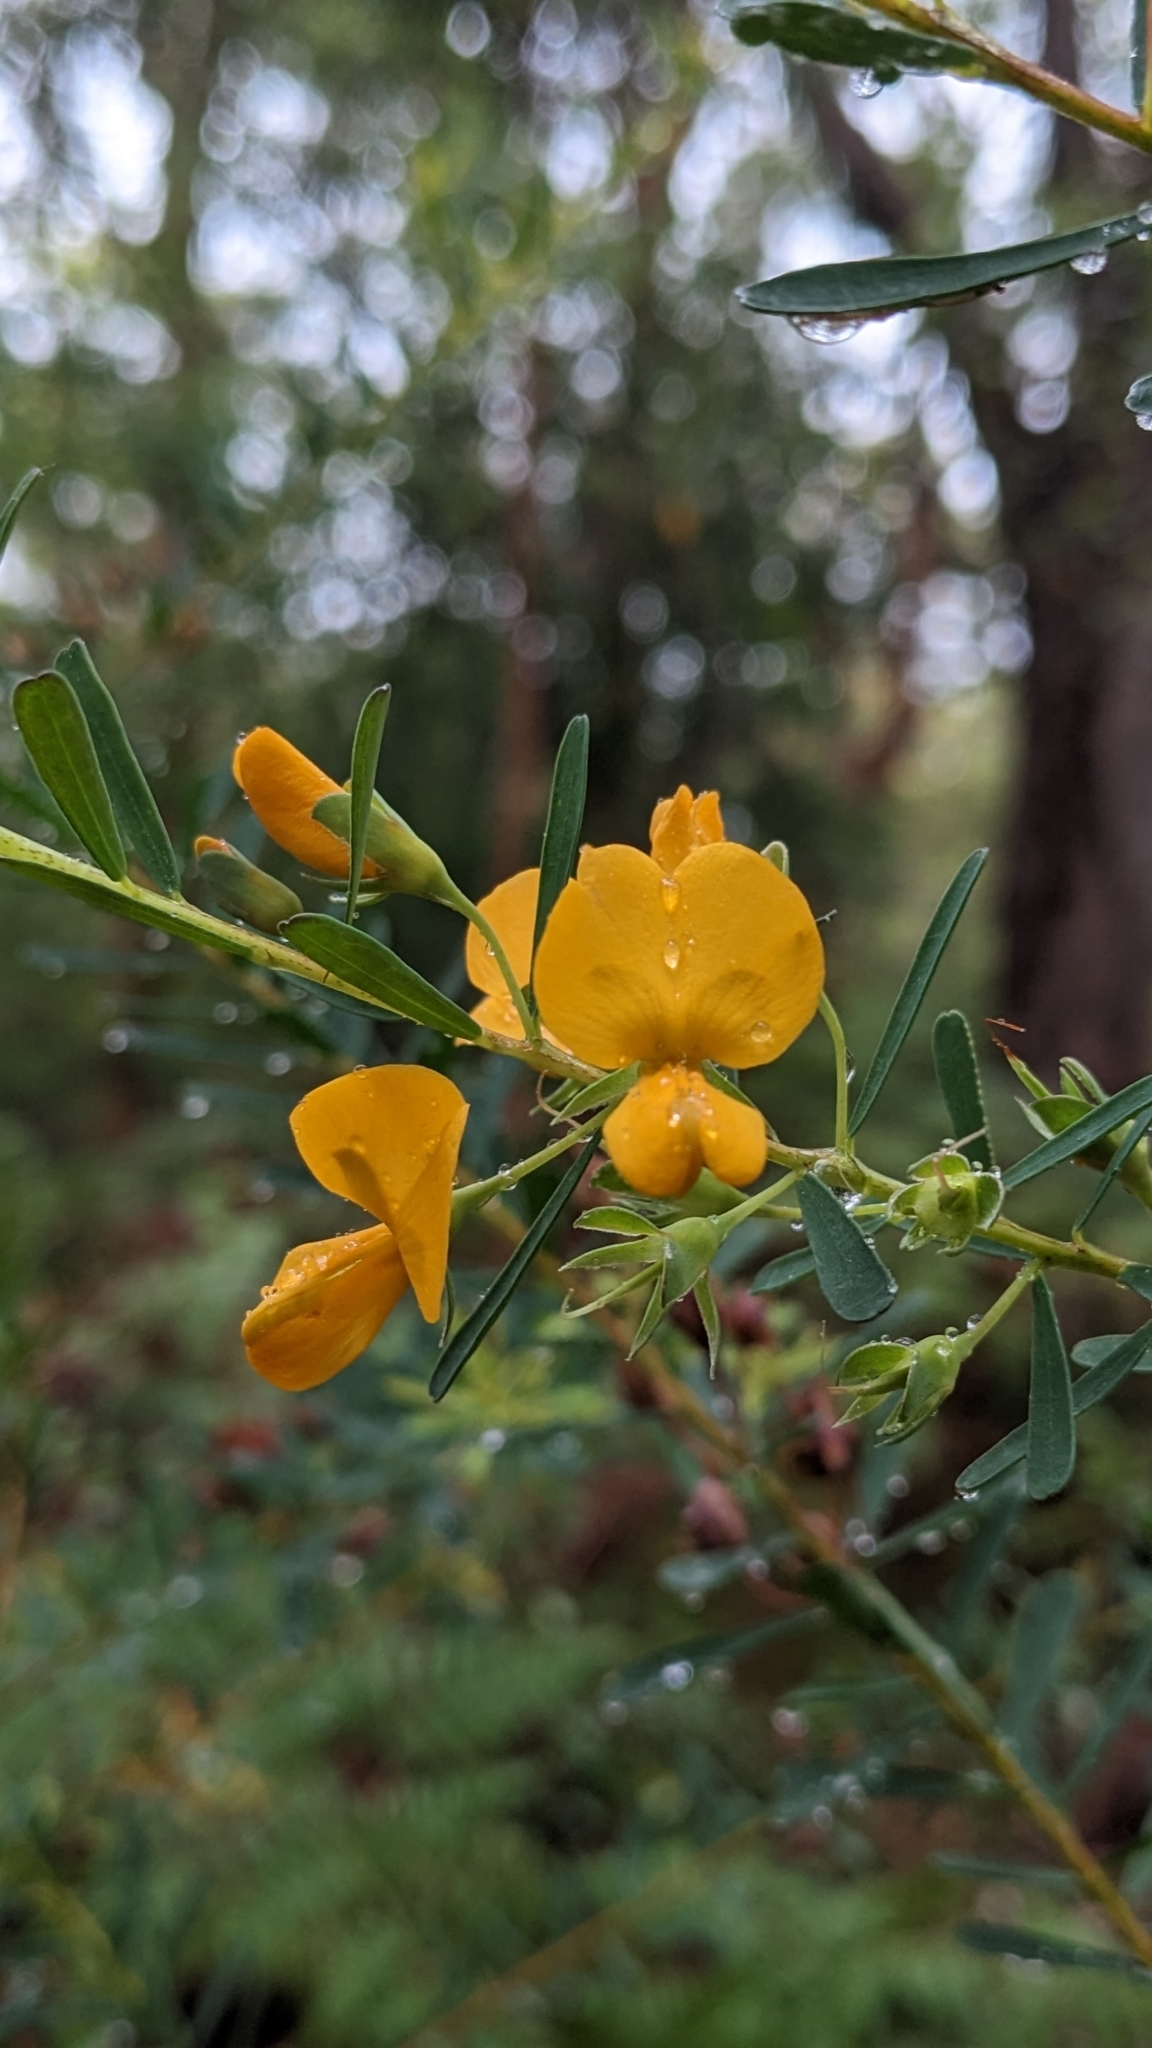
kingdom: Plantae
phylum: Tracheophyta
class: Magnoliopsida
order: Fabales
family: Fabaceae
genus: Pultenaea
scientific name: Pultenaea euchila
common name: Large-flower bush-pea
